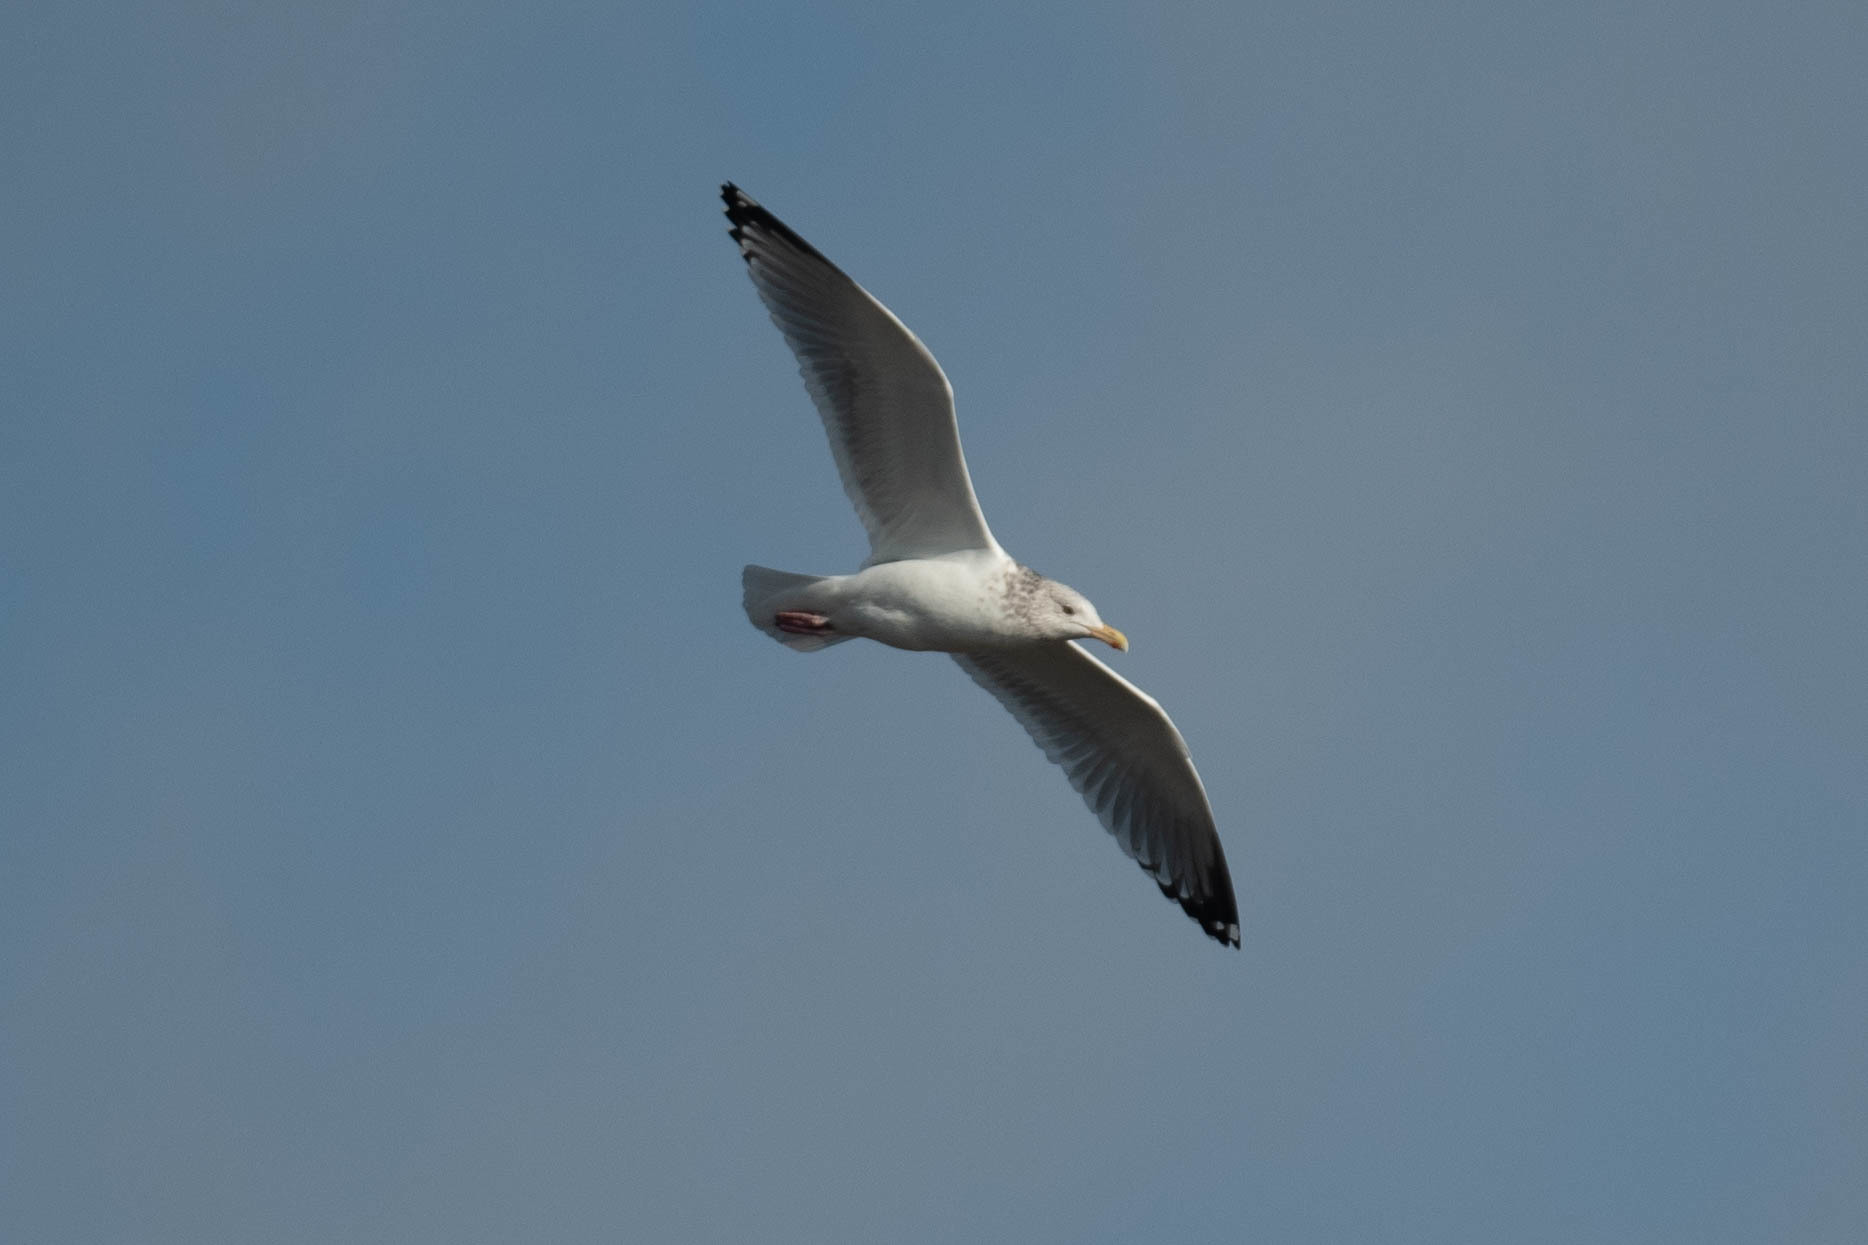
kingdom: Animalia
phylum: Chordata
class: Aves
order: Charadriiformes
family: Laridae
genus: Larus
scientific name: Larus argentatus
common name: Herring gull
